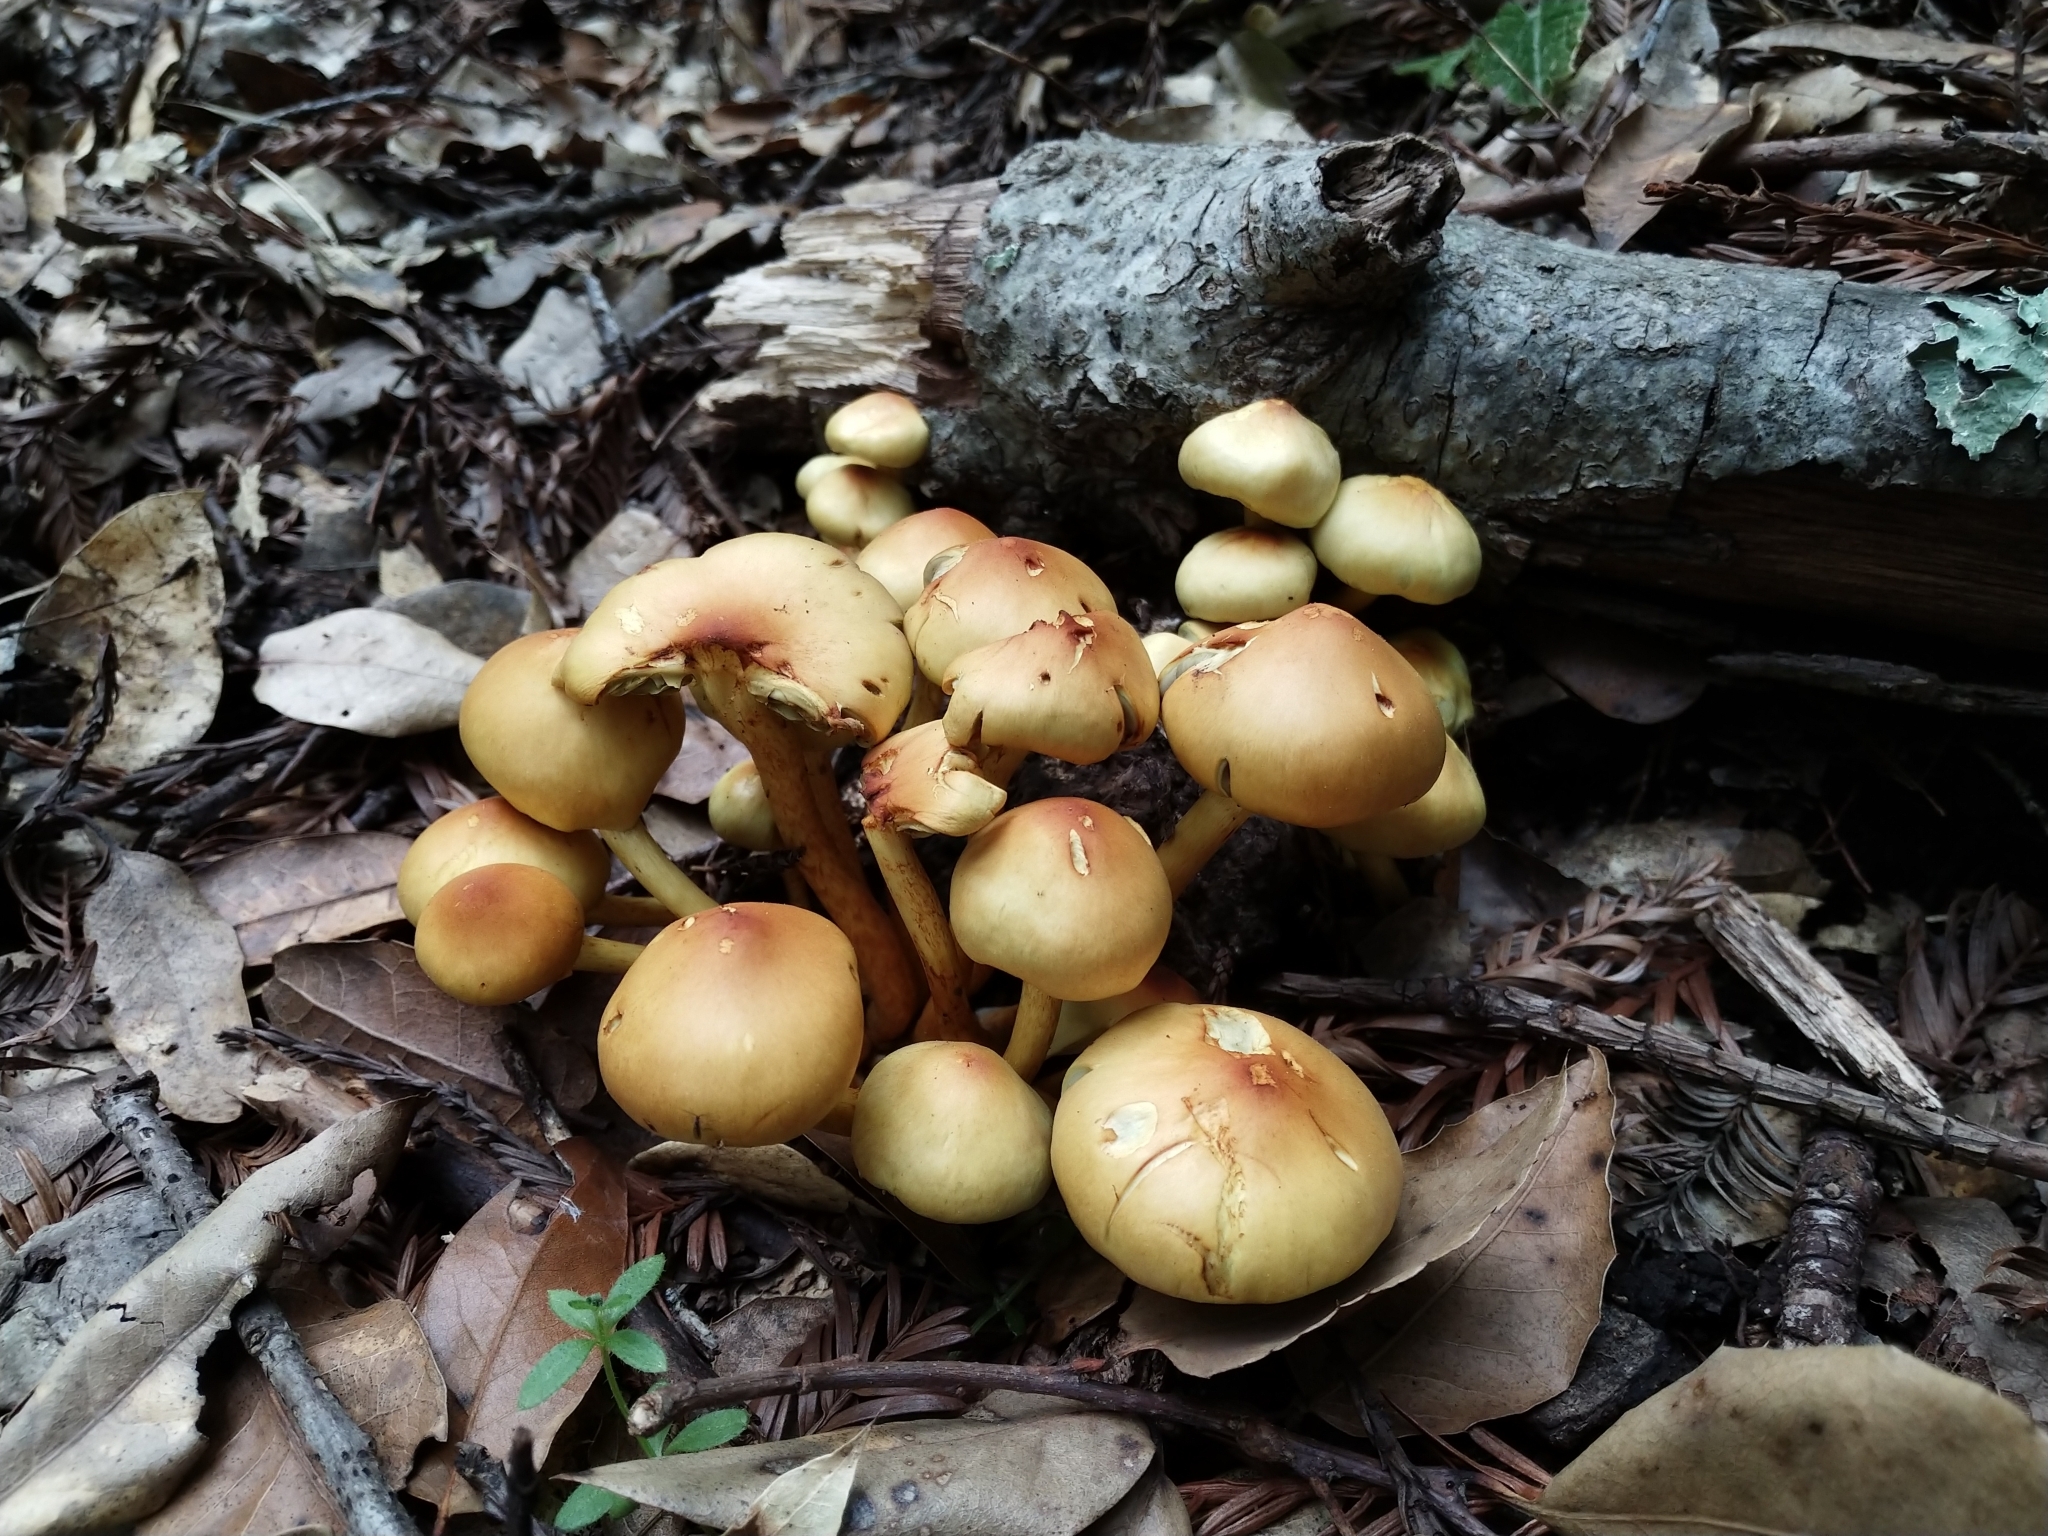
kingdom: Fungi
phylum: Basidiomycota
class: Agaricomycetes
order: Agaricales
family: Strophariaceae
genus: Hypholoma
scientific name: Hypholoma fasciculare
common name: Sulphur tuft
